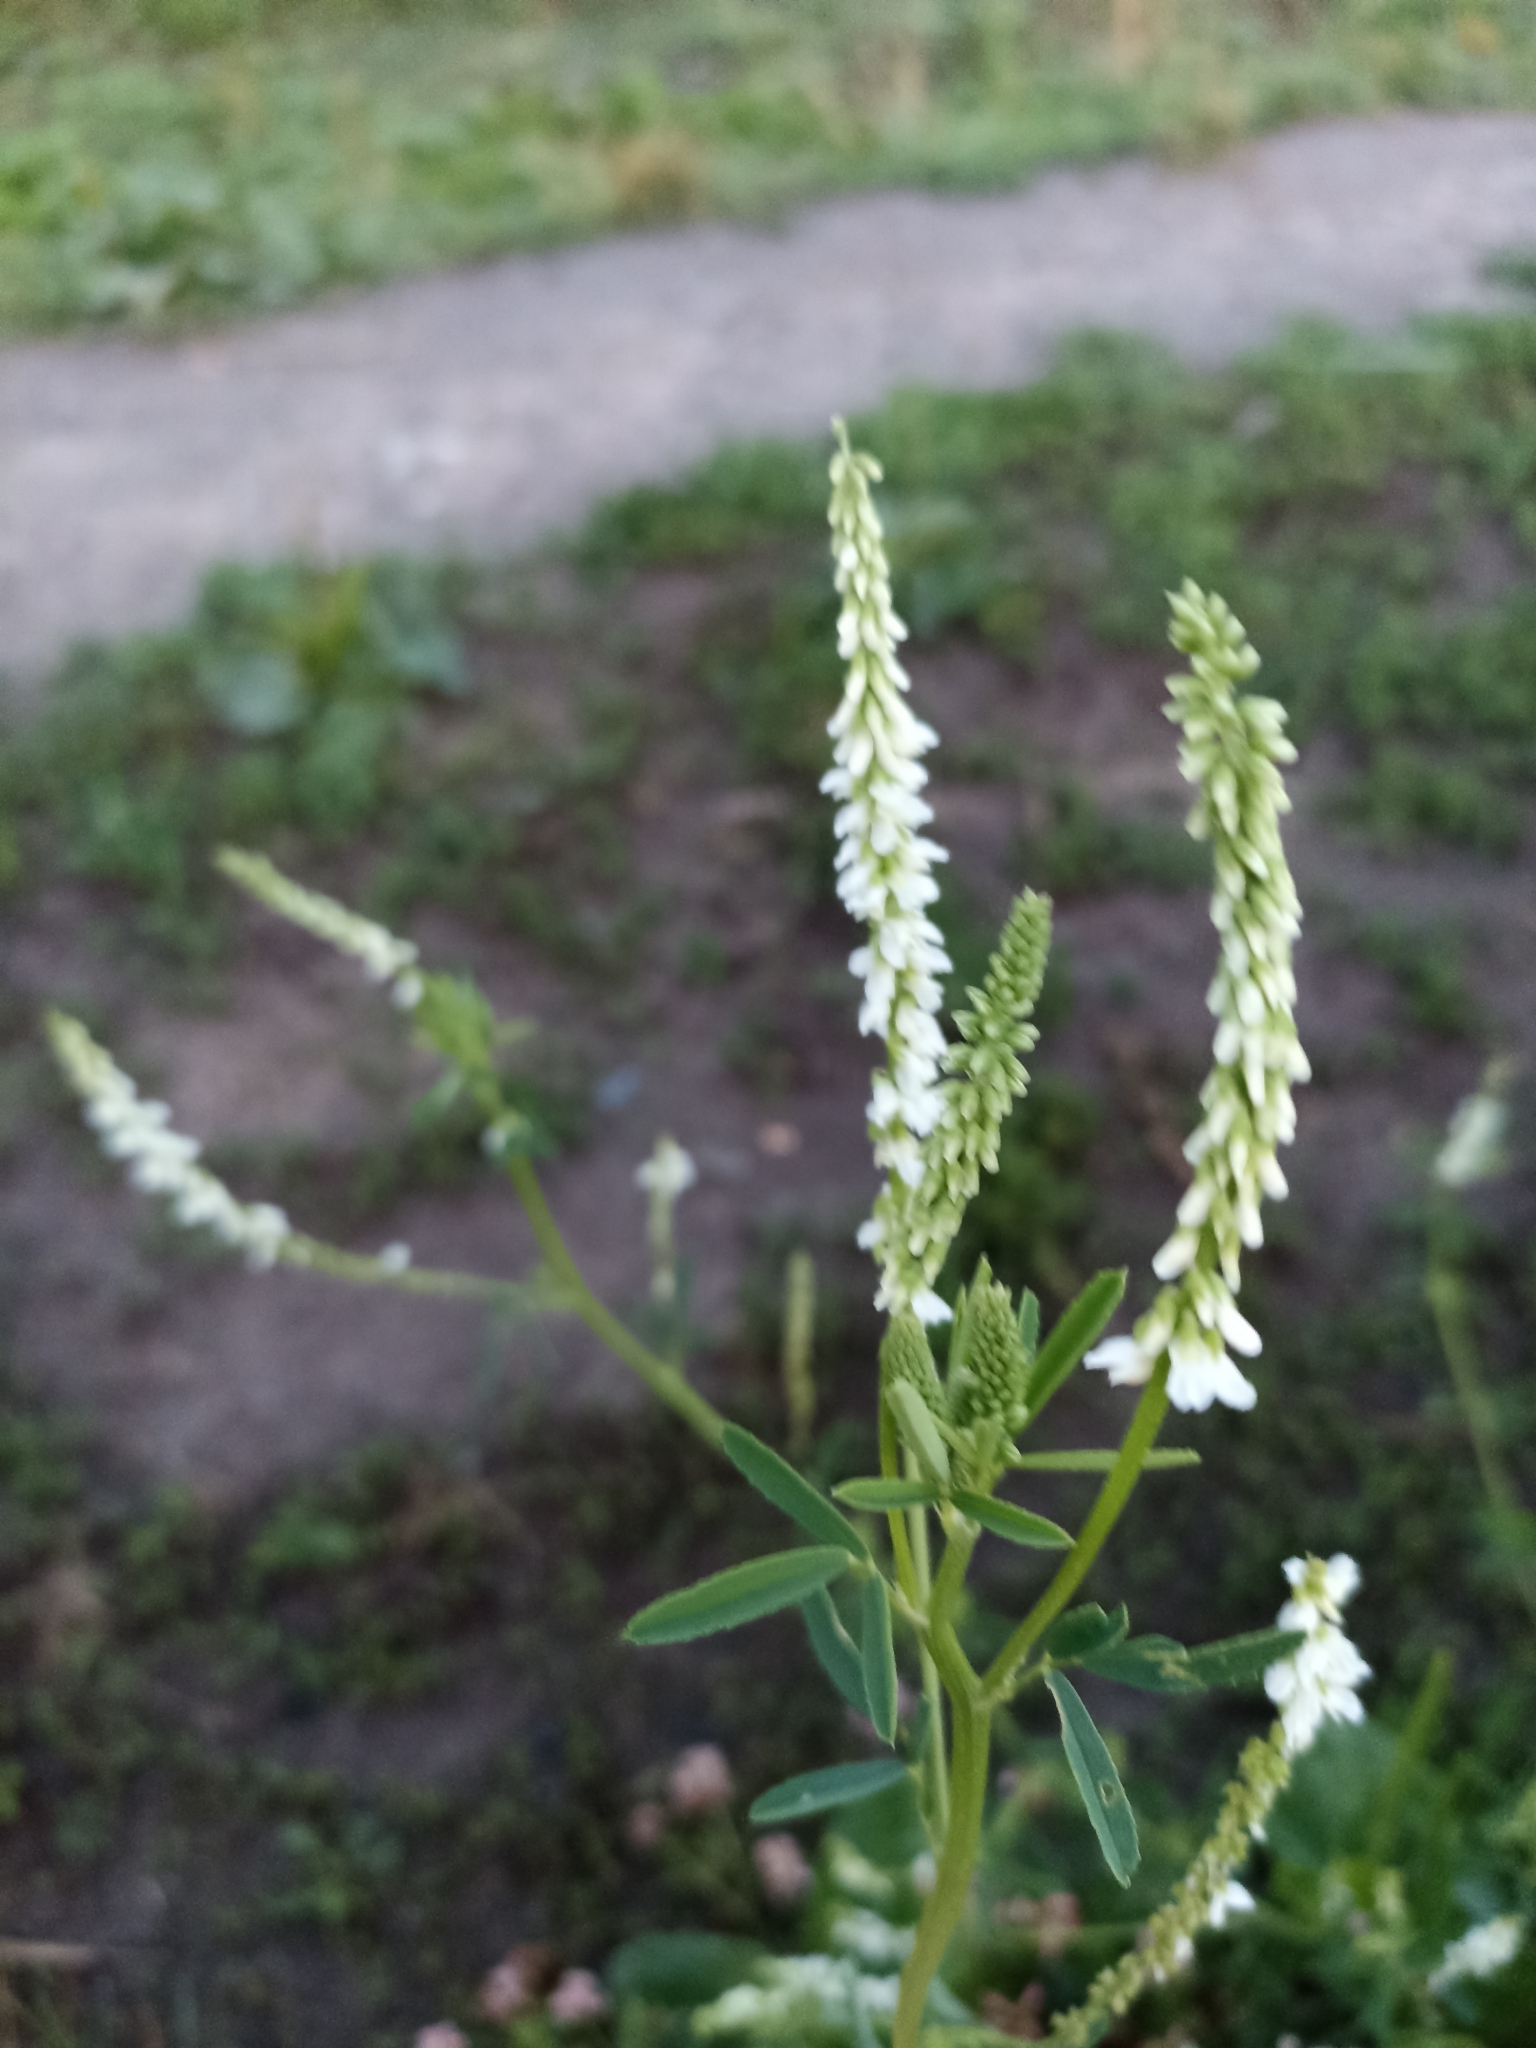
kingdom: Plantae
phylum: Tracheophyta
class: Magnoliopsida
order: Fabales
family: Fabaceae
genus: Melilotus
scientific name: Melilotus albus
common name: White melilot
